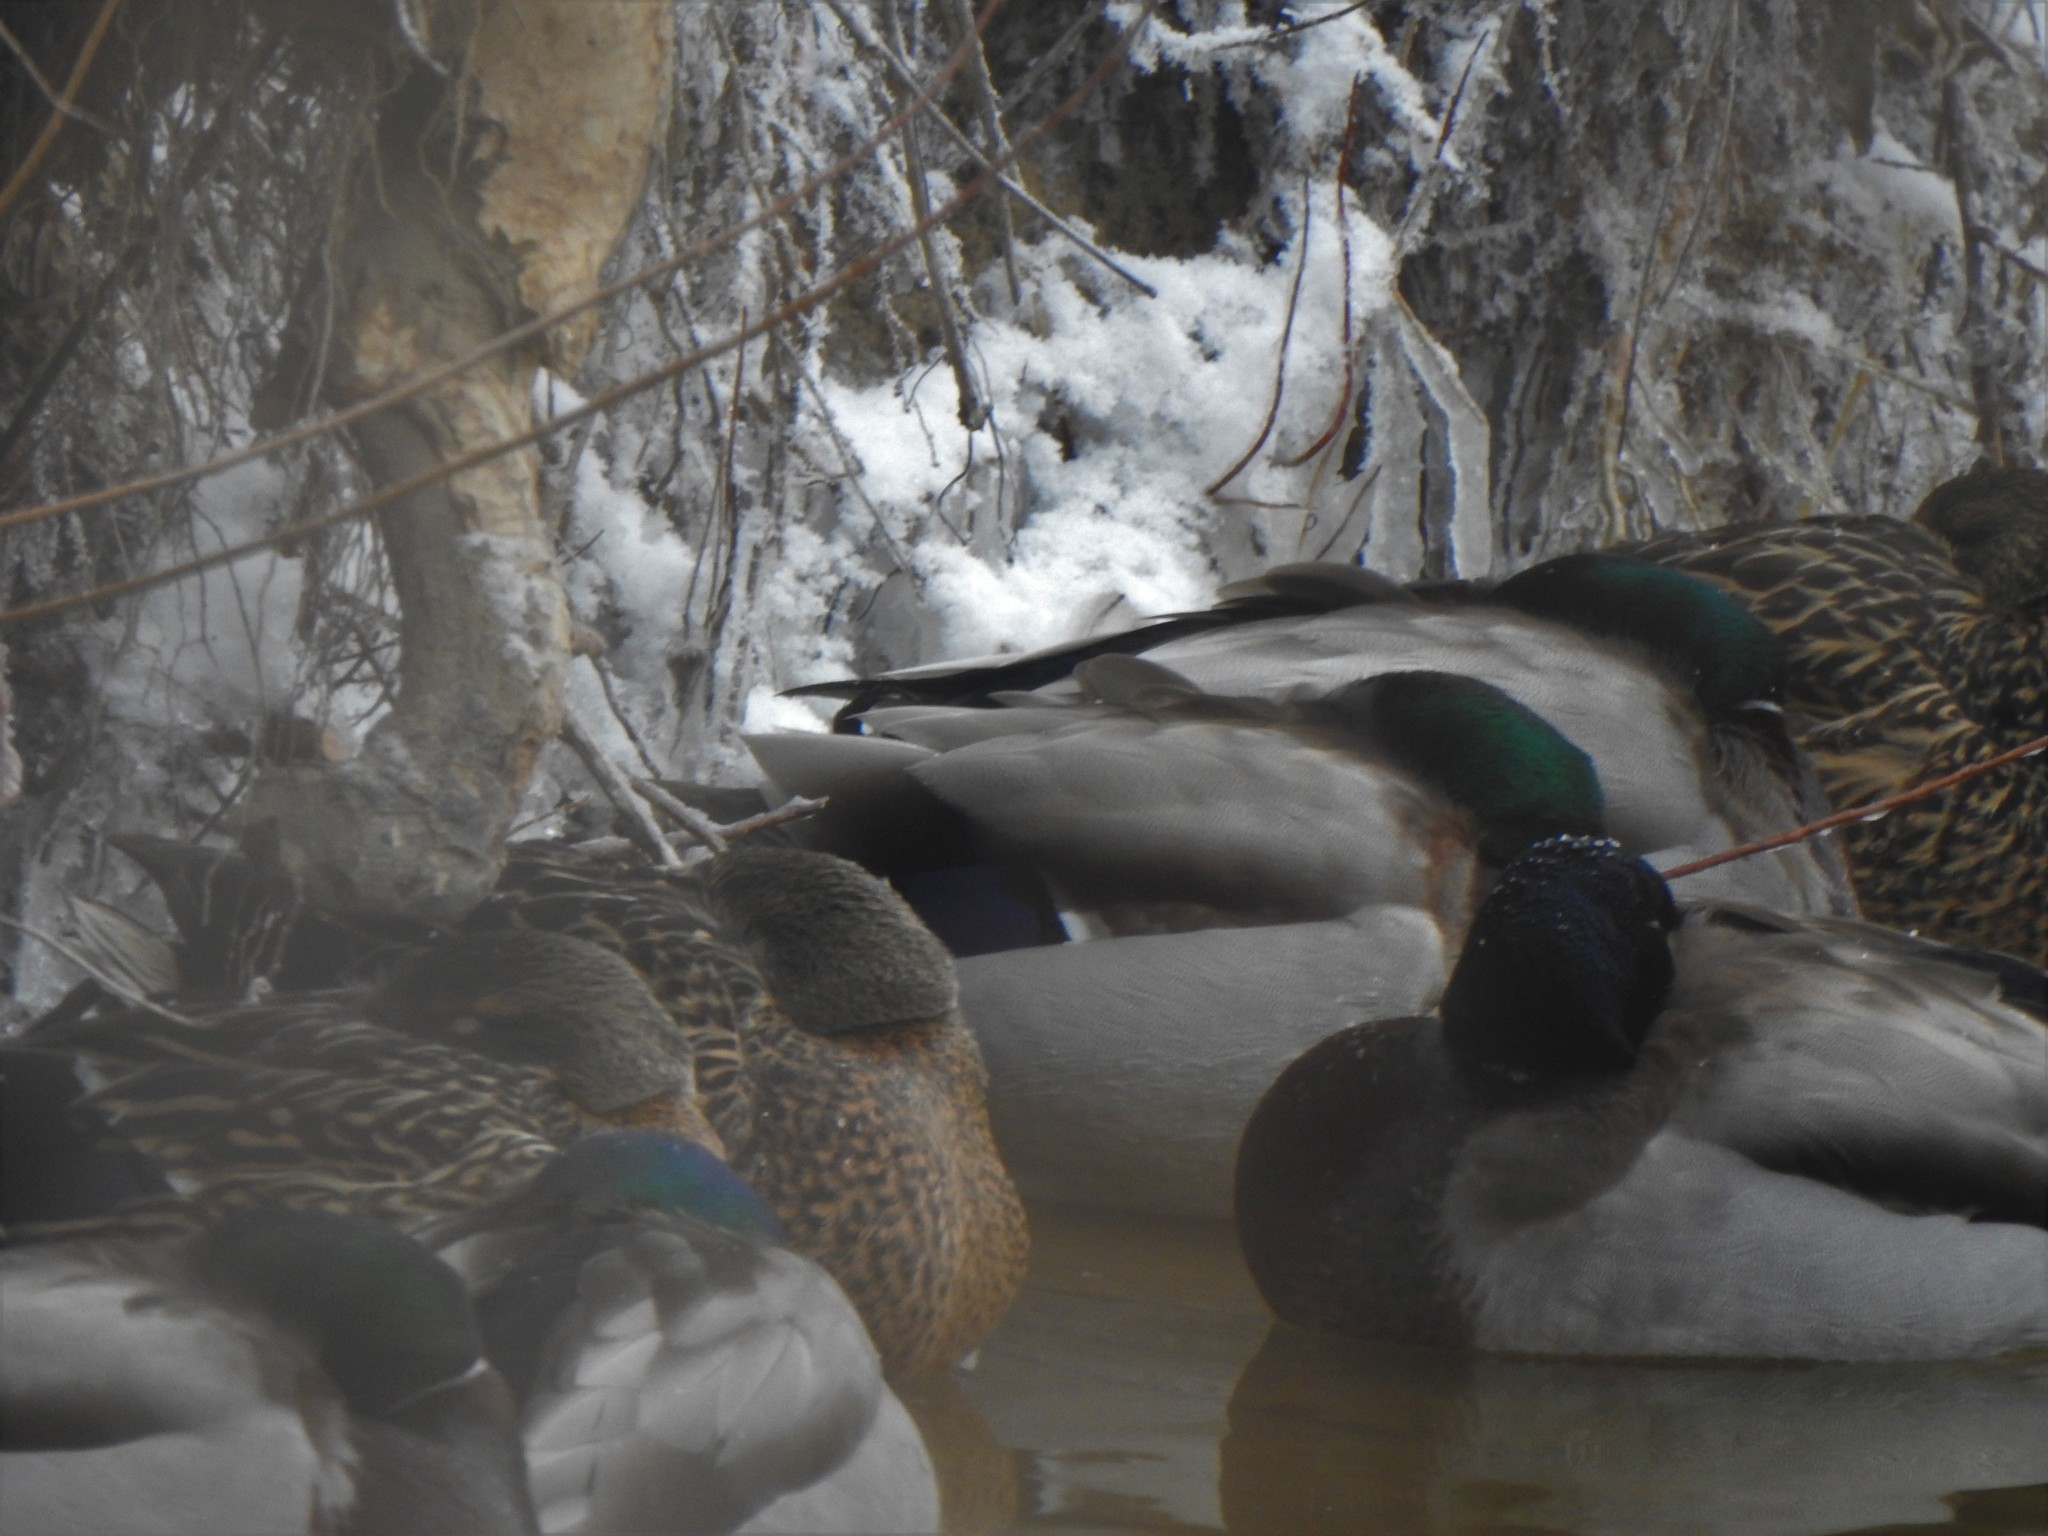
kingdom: Animalia
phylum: Chordata
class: Aves
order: Anseriformes
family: Anatidae
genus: Anas
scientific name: Anas platyrhynchos
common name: Mallard
